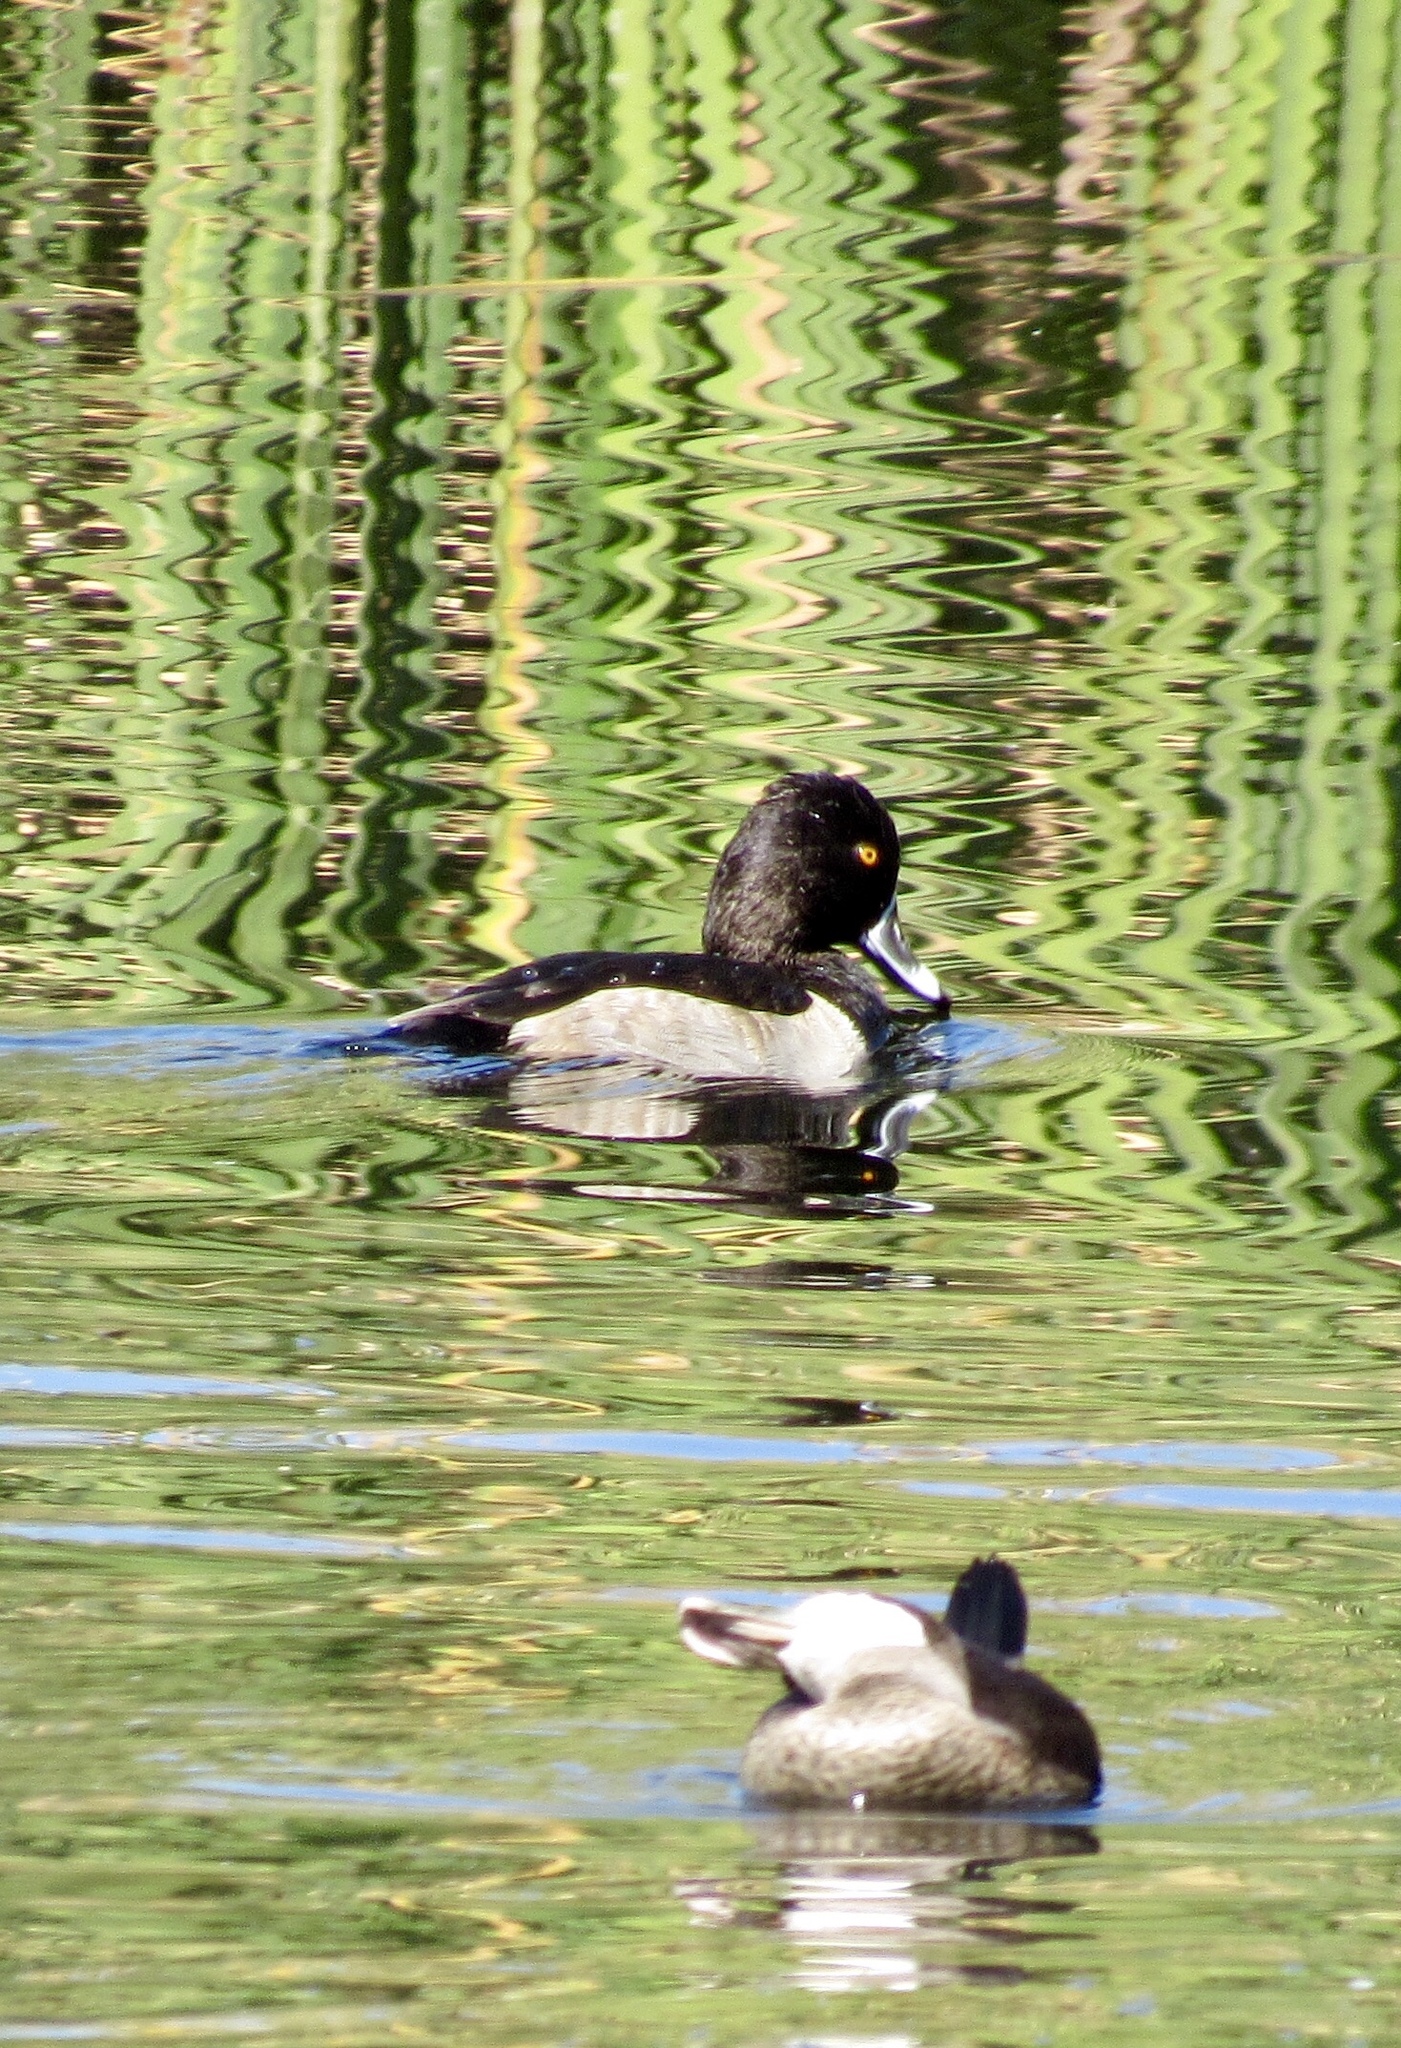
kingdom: Animalia
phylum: Chordata
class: Aves
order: Anseriformes
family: Anatidae
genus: Oxyura
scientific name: Oxyura jamaicensis
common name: Ruddy duck
